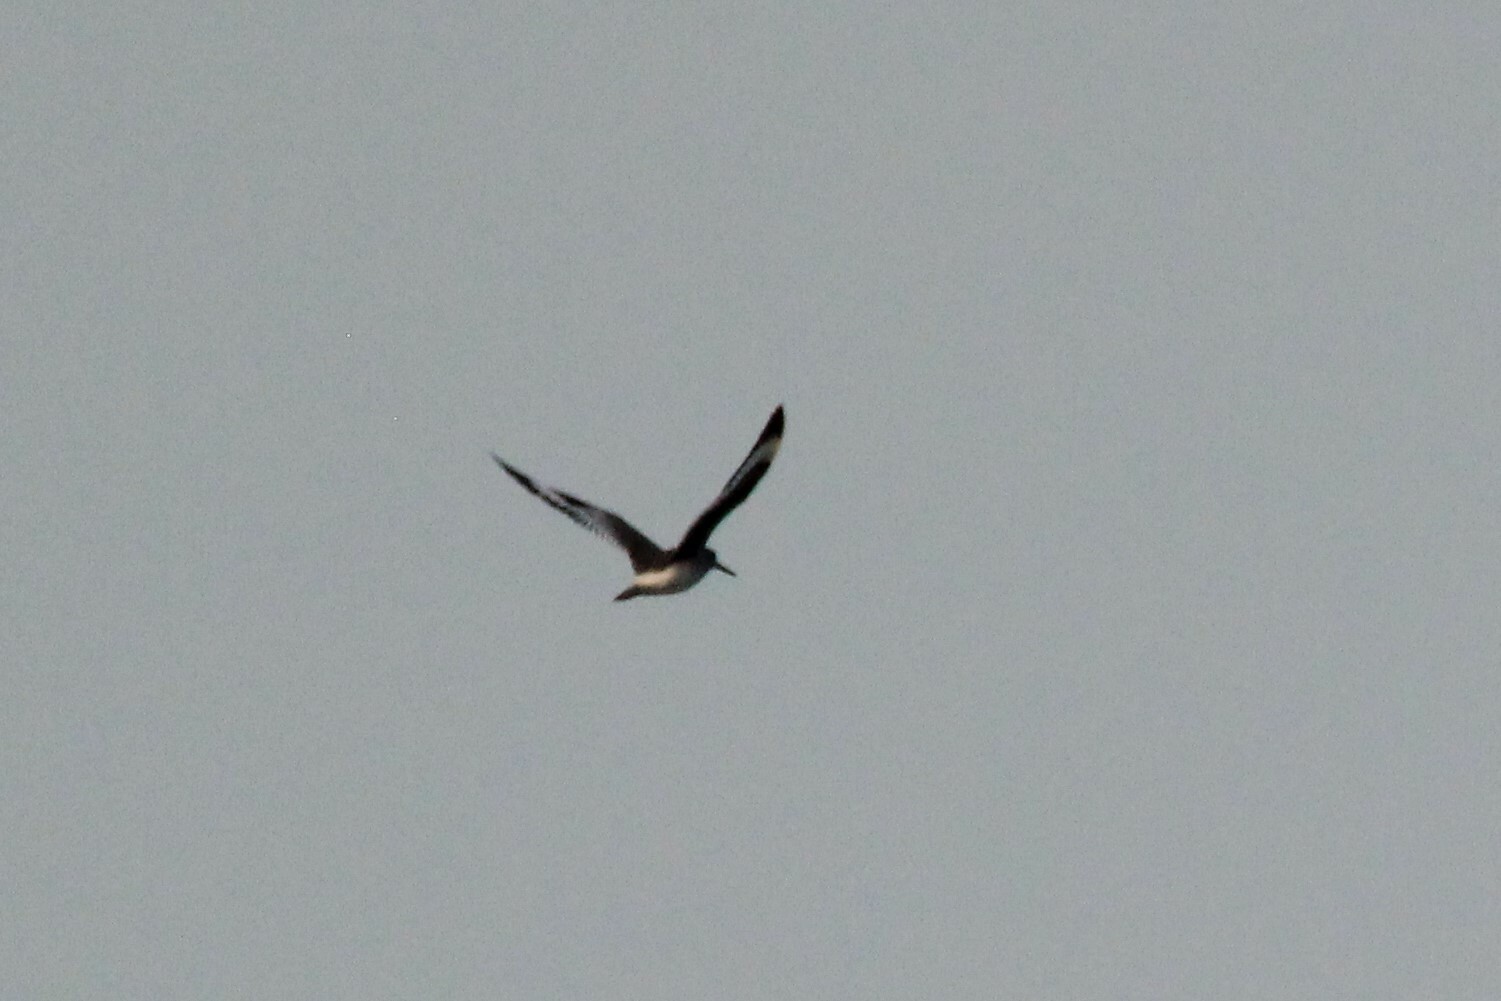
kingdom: Animalia
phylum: Chordata
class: Aves
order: Charadriiformes
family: Scolopacidae
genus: Tringa
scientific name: Tringa semipalmata
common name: Willet
